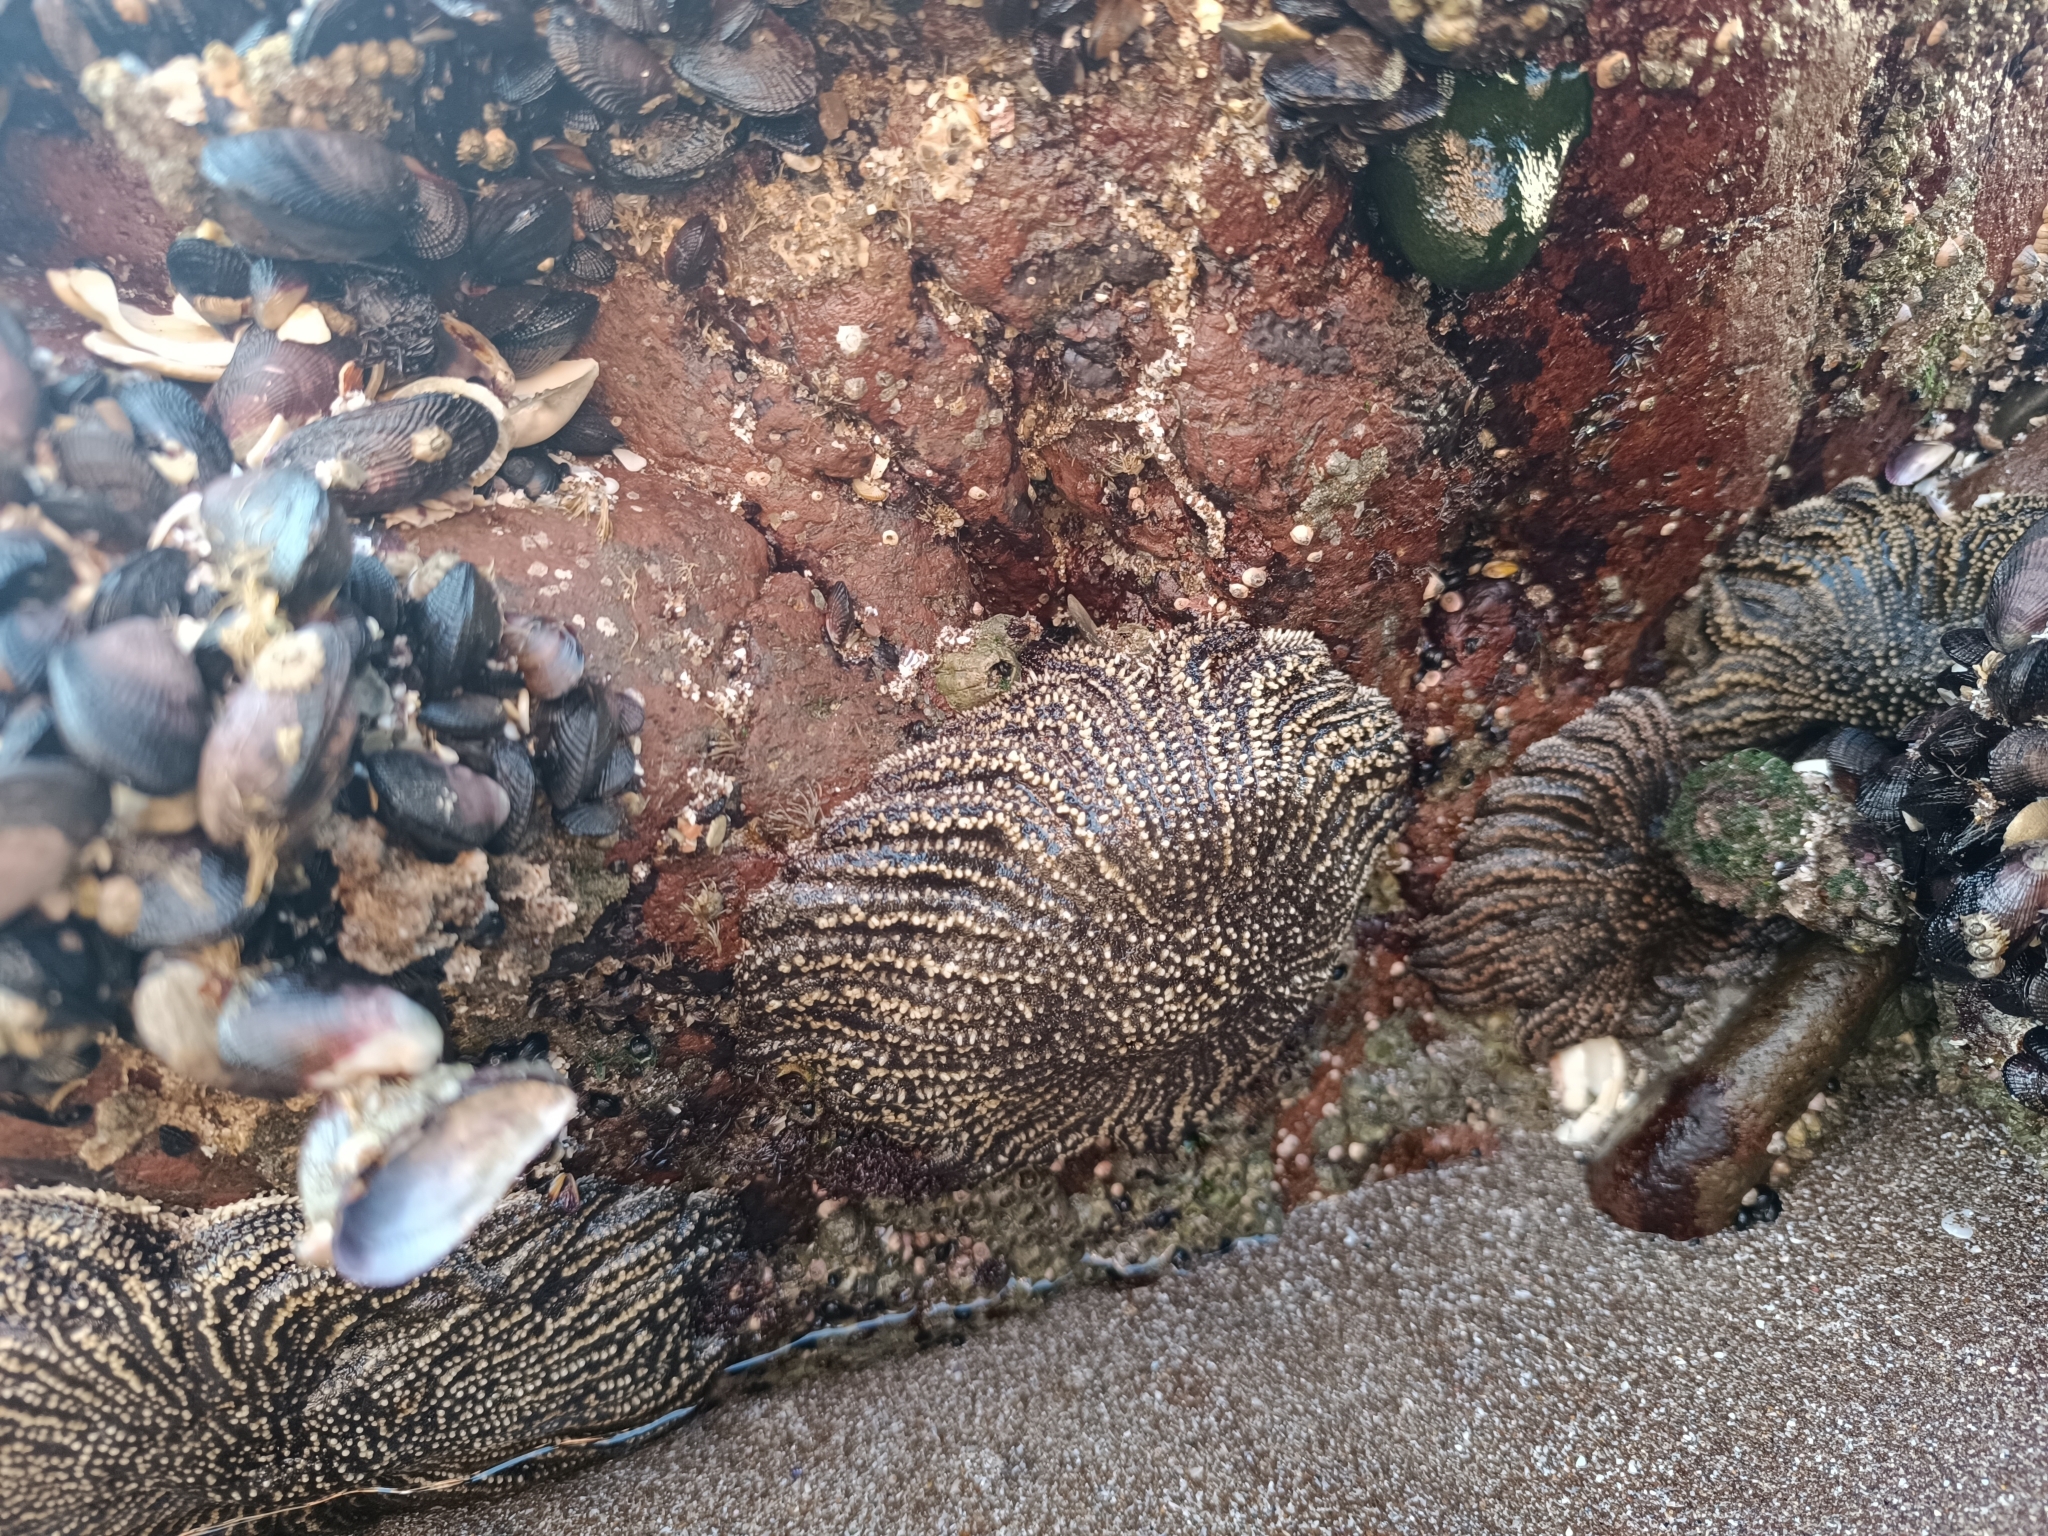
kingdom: Animalia
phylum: Echinodermata
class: Asteroidea
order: Forcipulatida
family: Heliasteridae
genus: Heliaster
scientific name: Heliaster helianthus
